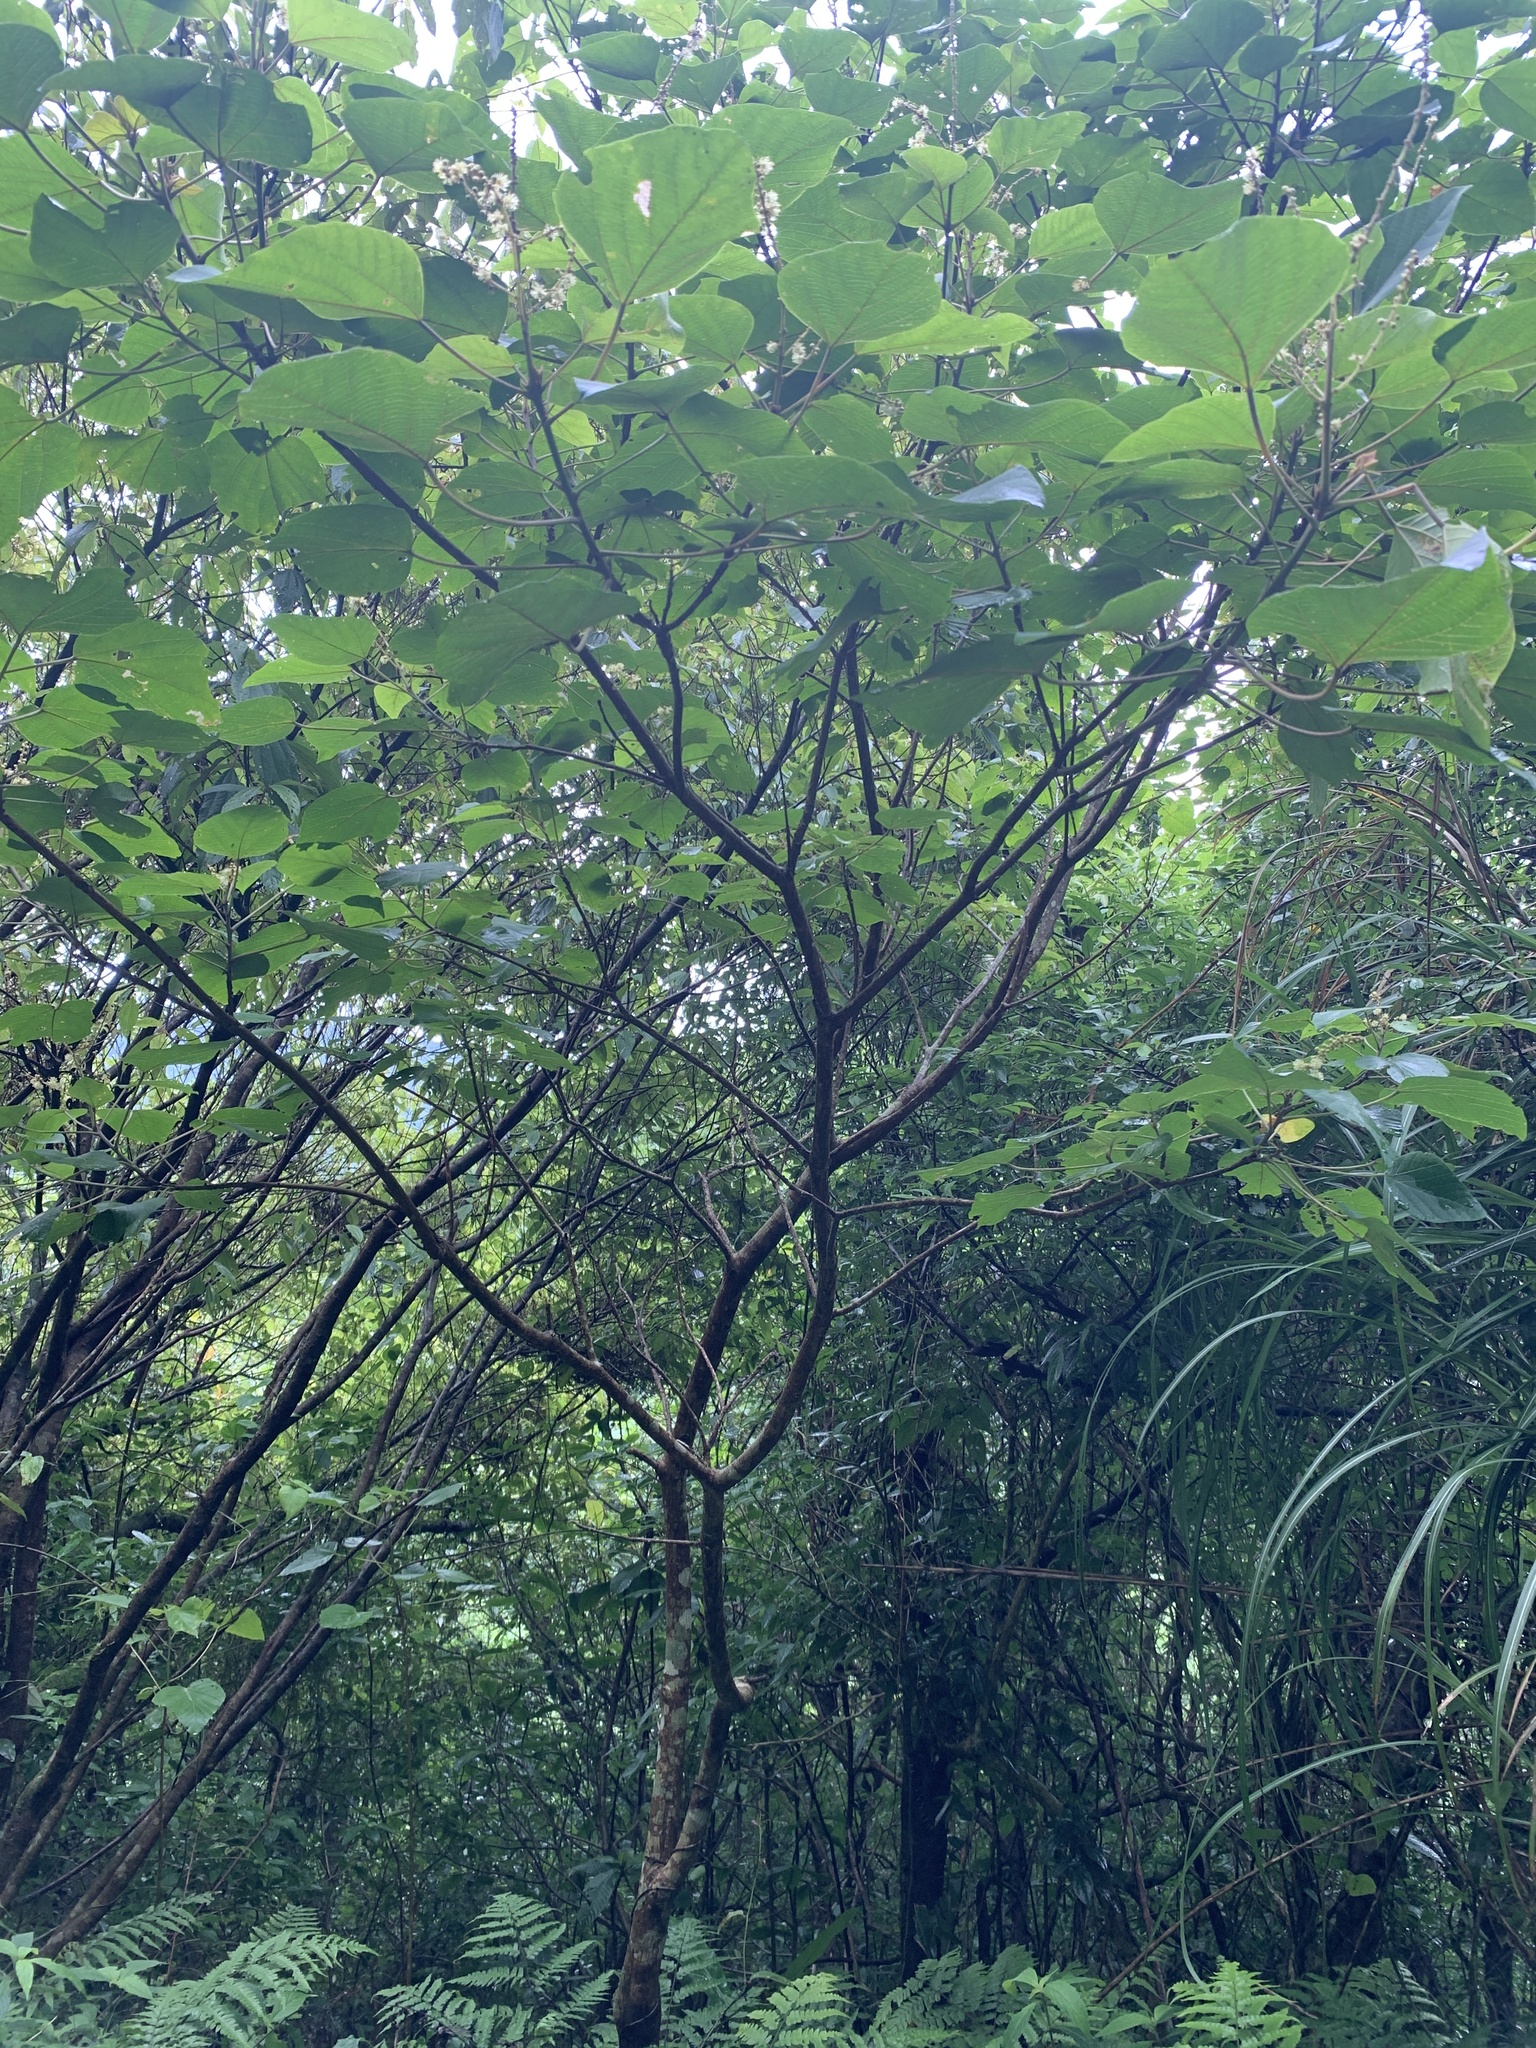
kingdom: Plantae
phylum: Tracheophyta
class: Magnoliopsida
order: Malpighiales
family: Euphorbiaceae
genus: Mallotus
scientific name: Mallotus japonicus
